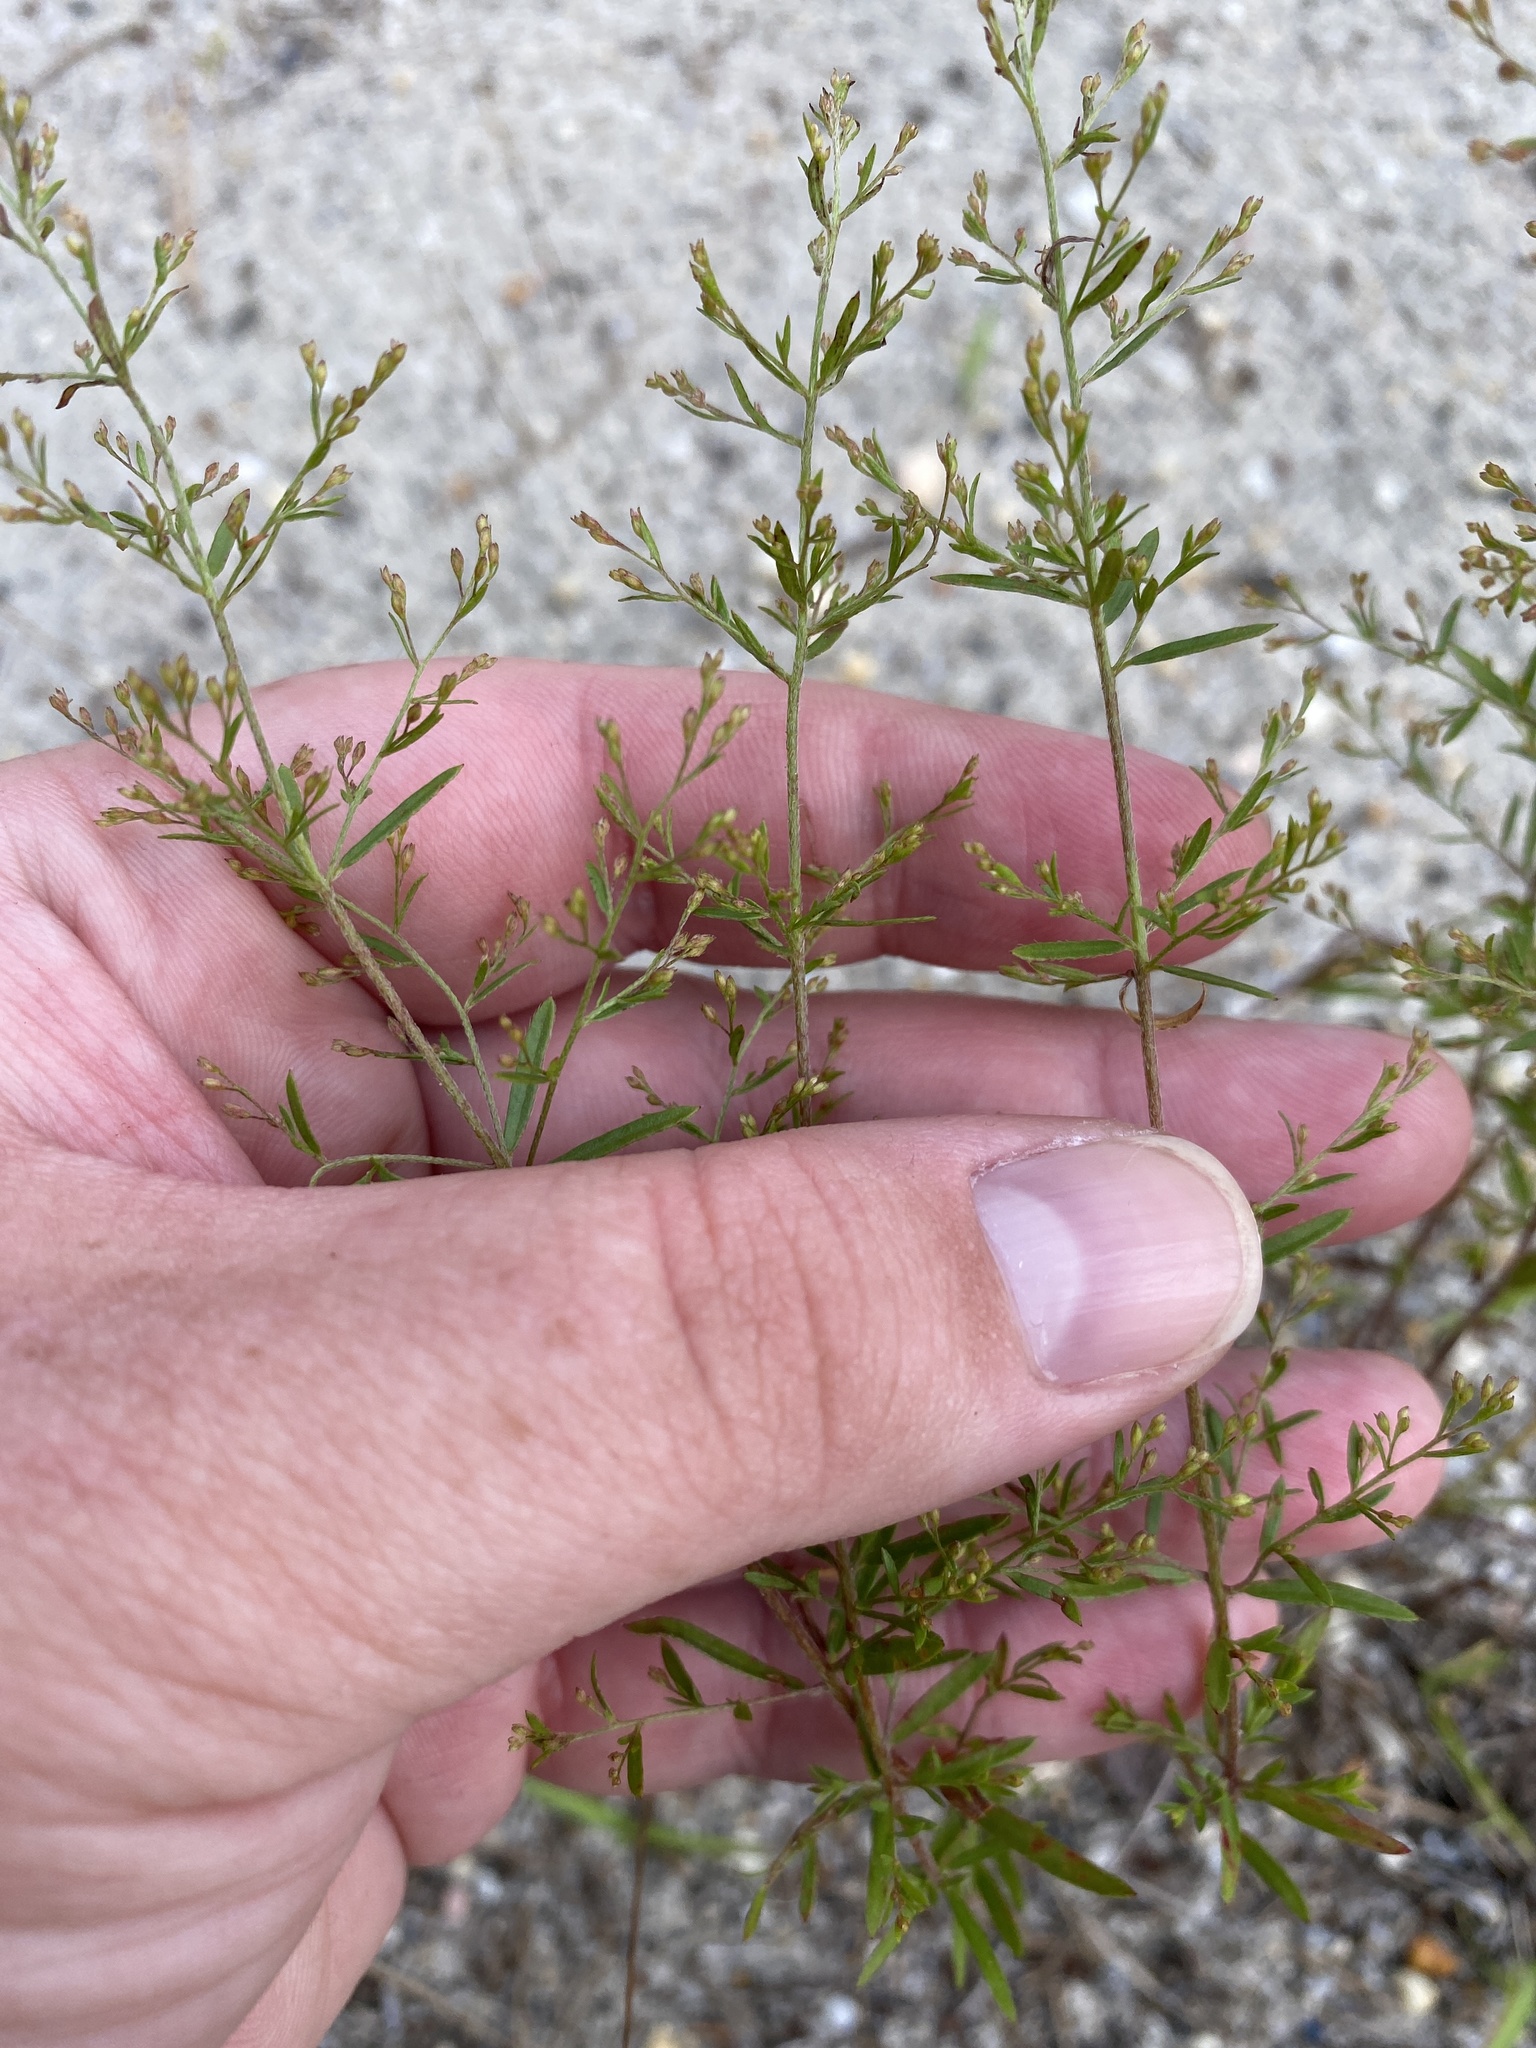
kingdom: Plantae
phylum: Tracheophyta
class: Magnoliopsida
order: Malvales
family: Cistaceae
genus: Lechea
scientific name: Lechea pulchella
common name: Leggett's pinweed
